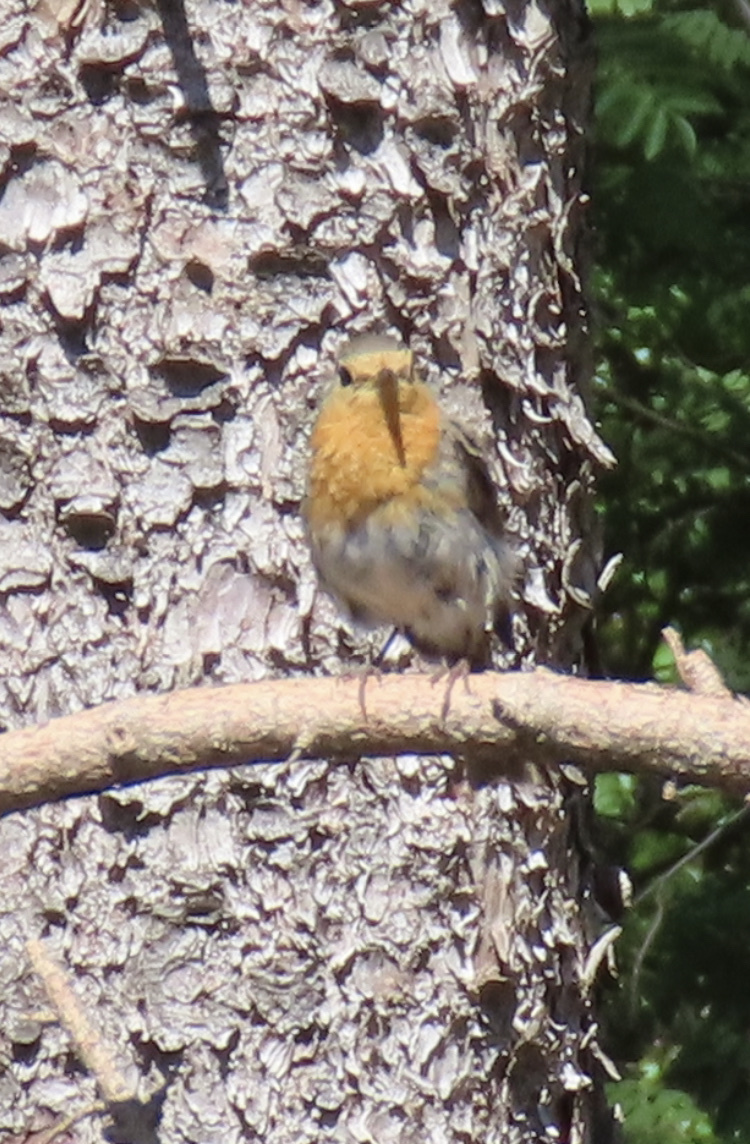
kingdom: Animalia
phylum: Chordata
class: Aves
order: Passeriformes
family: Muscicapidae
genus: Erithacus
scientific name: Erithacus rubecula
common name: European robin
